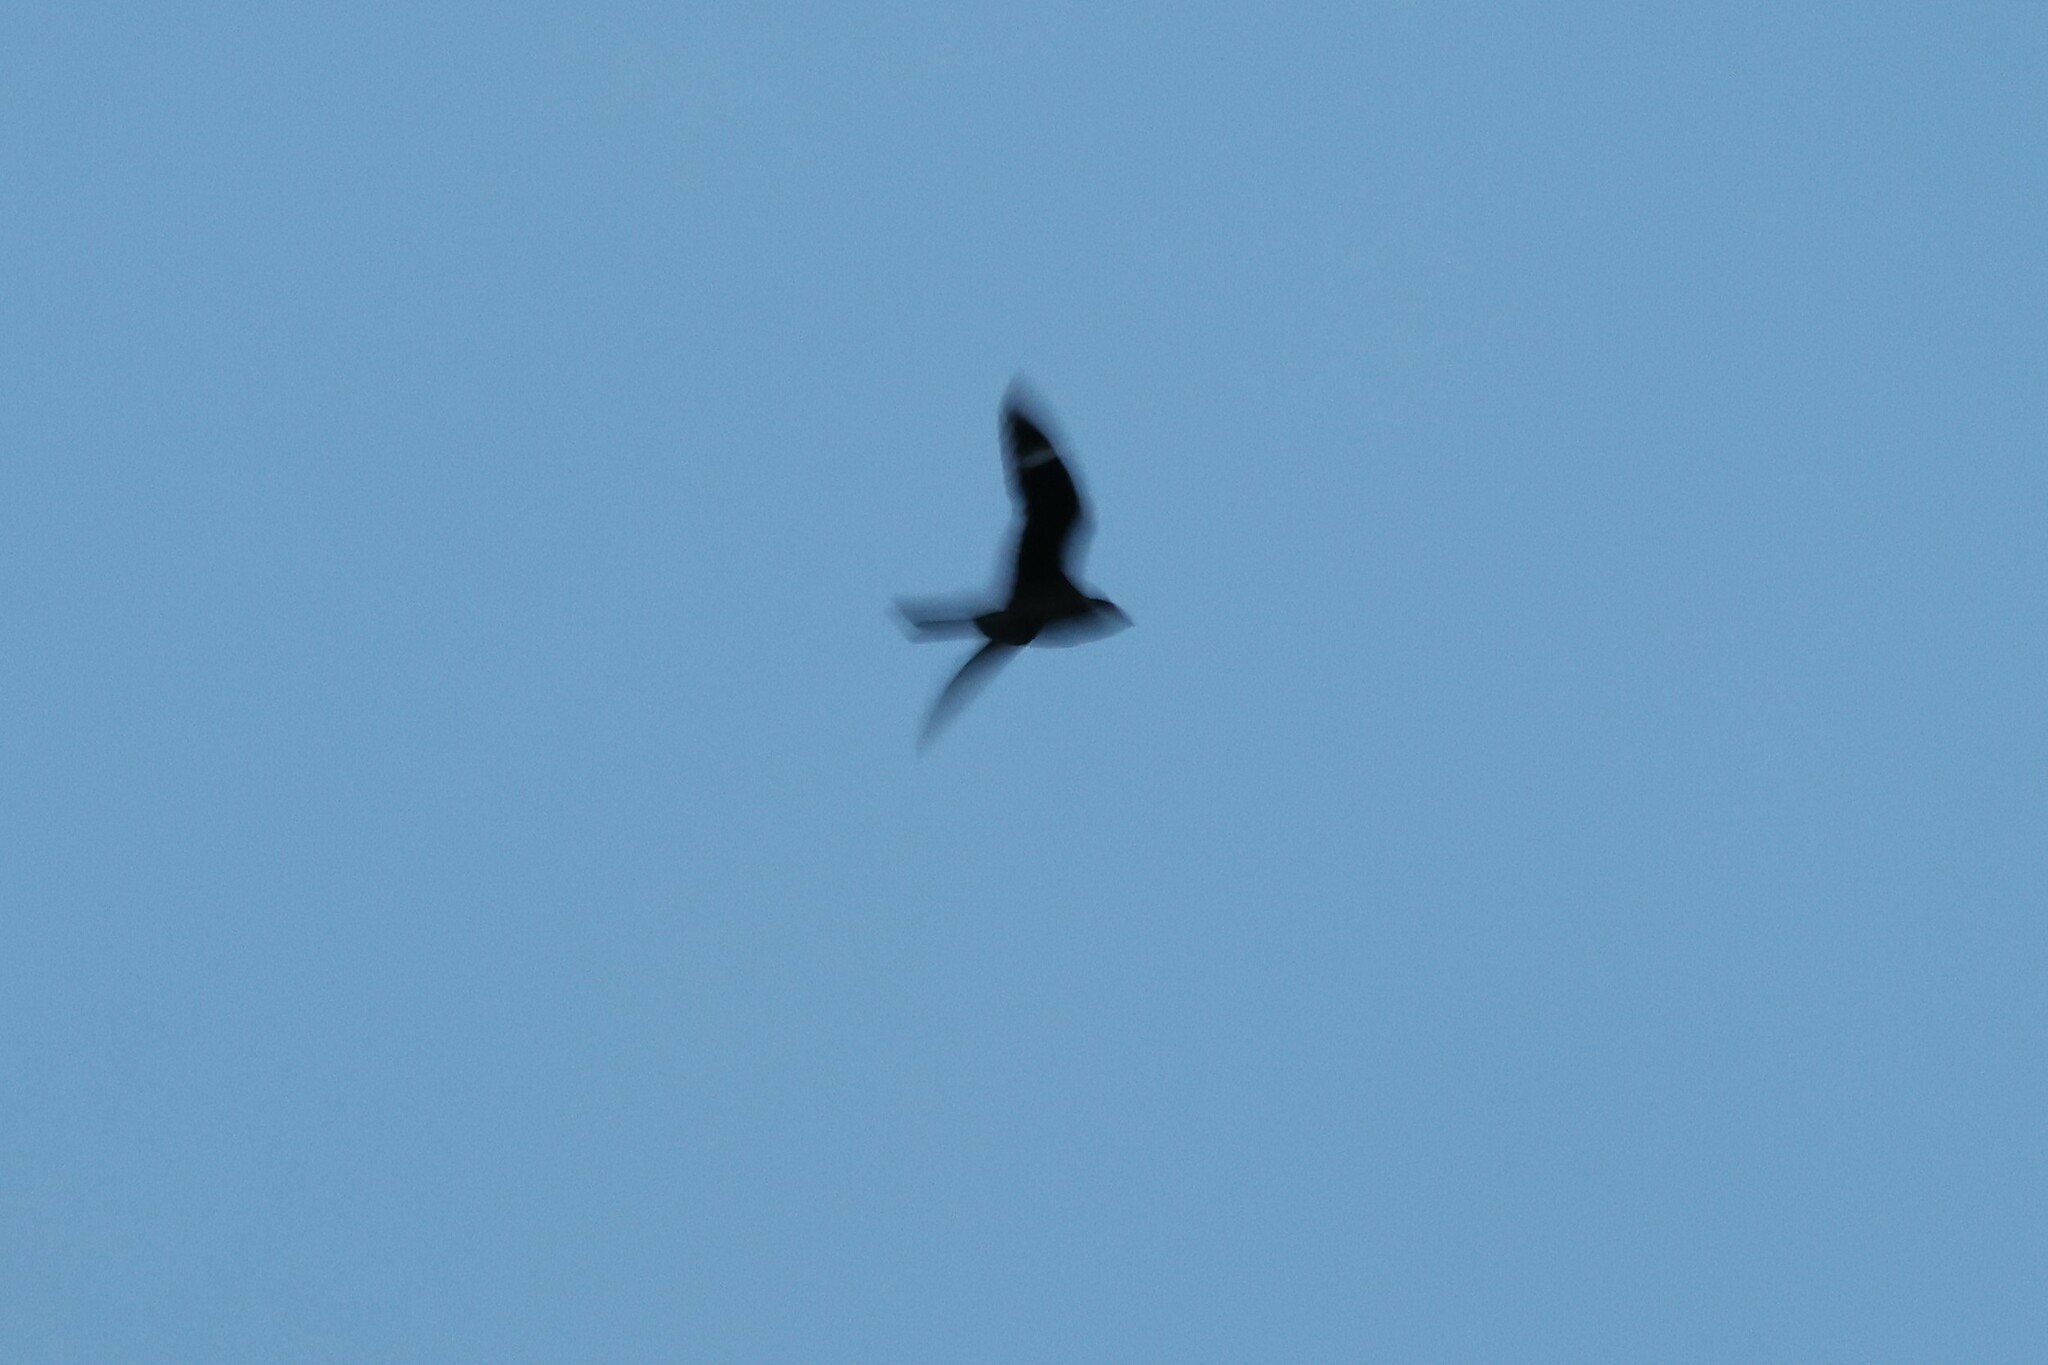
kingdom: Animalia
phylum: Chordata
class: Aves
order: Caprimulgiformes
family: Caprimulgidae
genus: Chordeiles
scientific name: Chordeiles minor
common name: Common nighthawk
